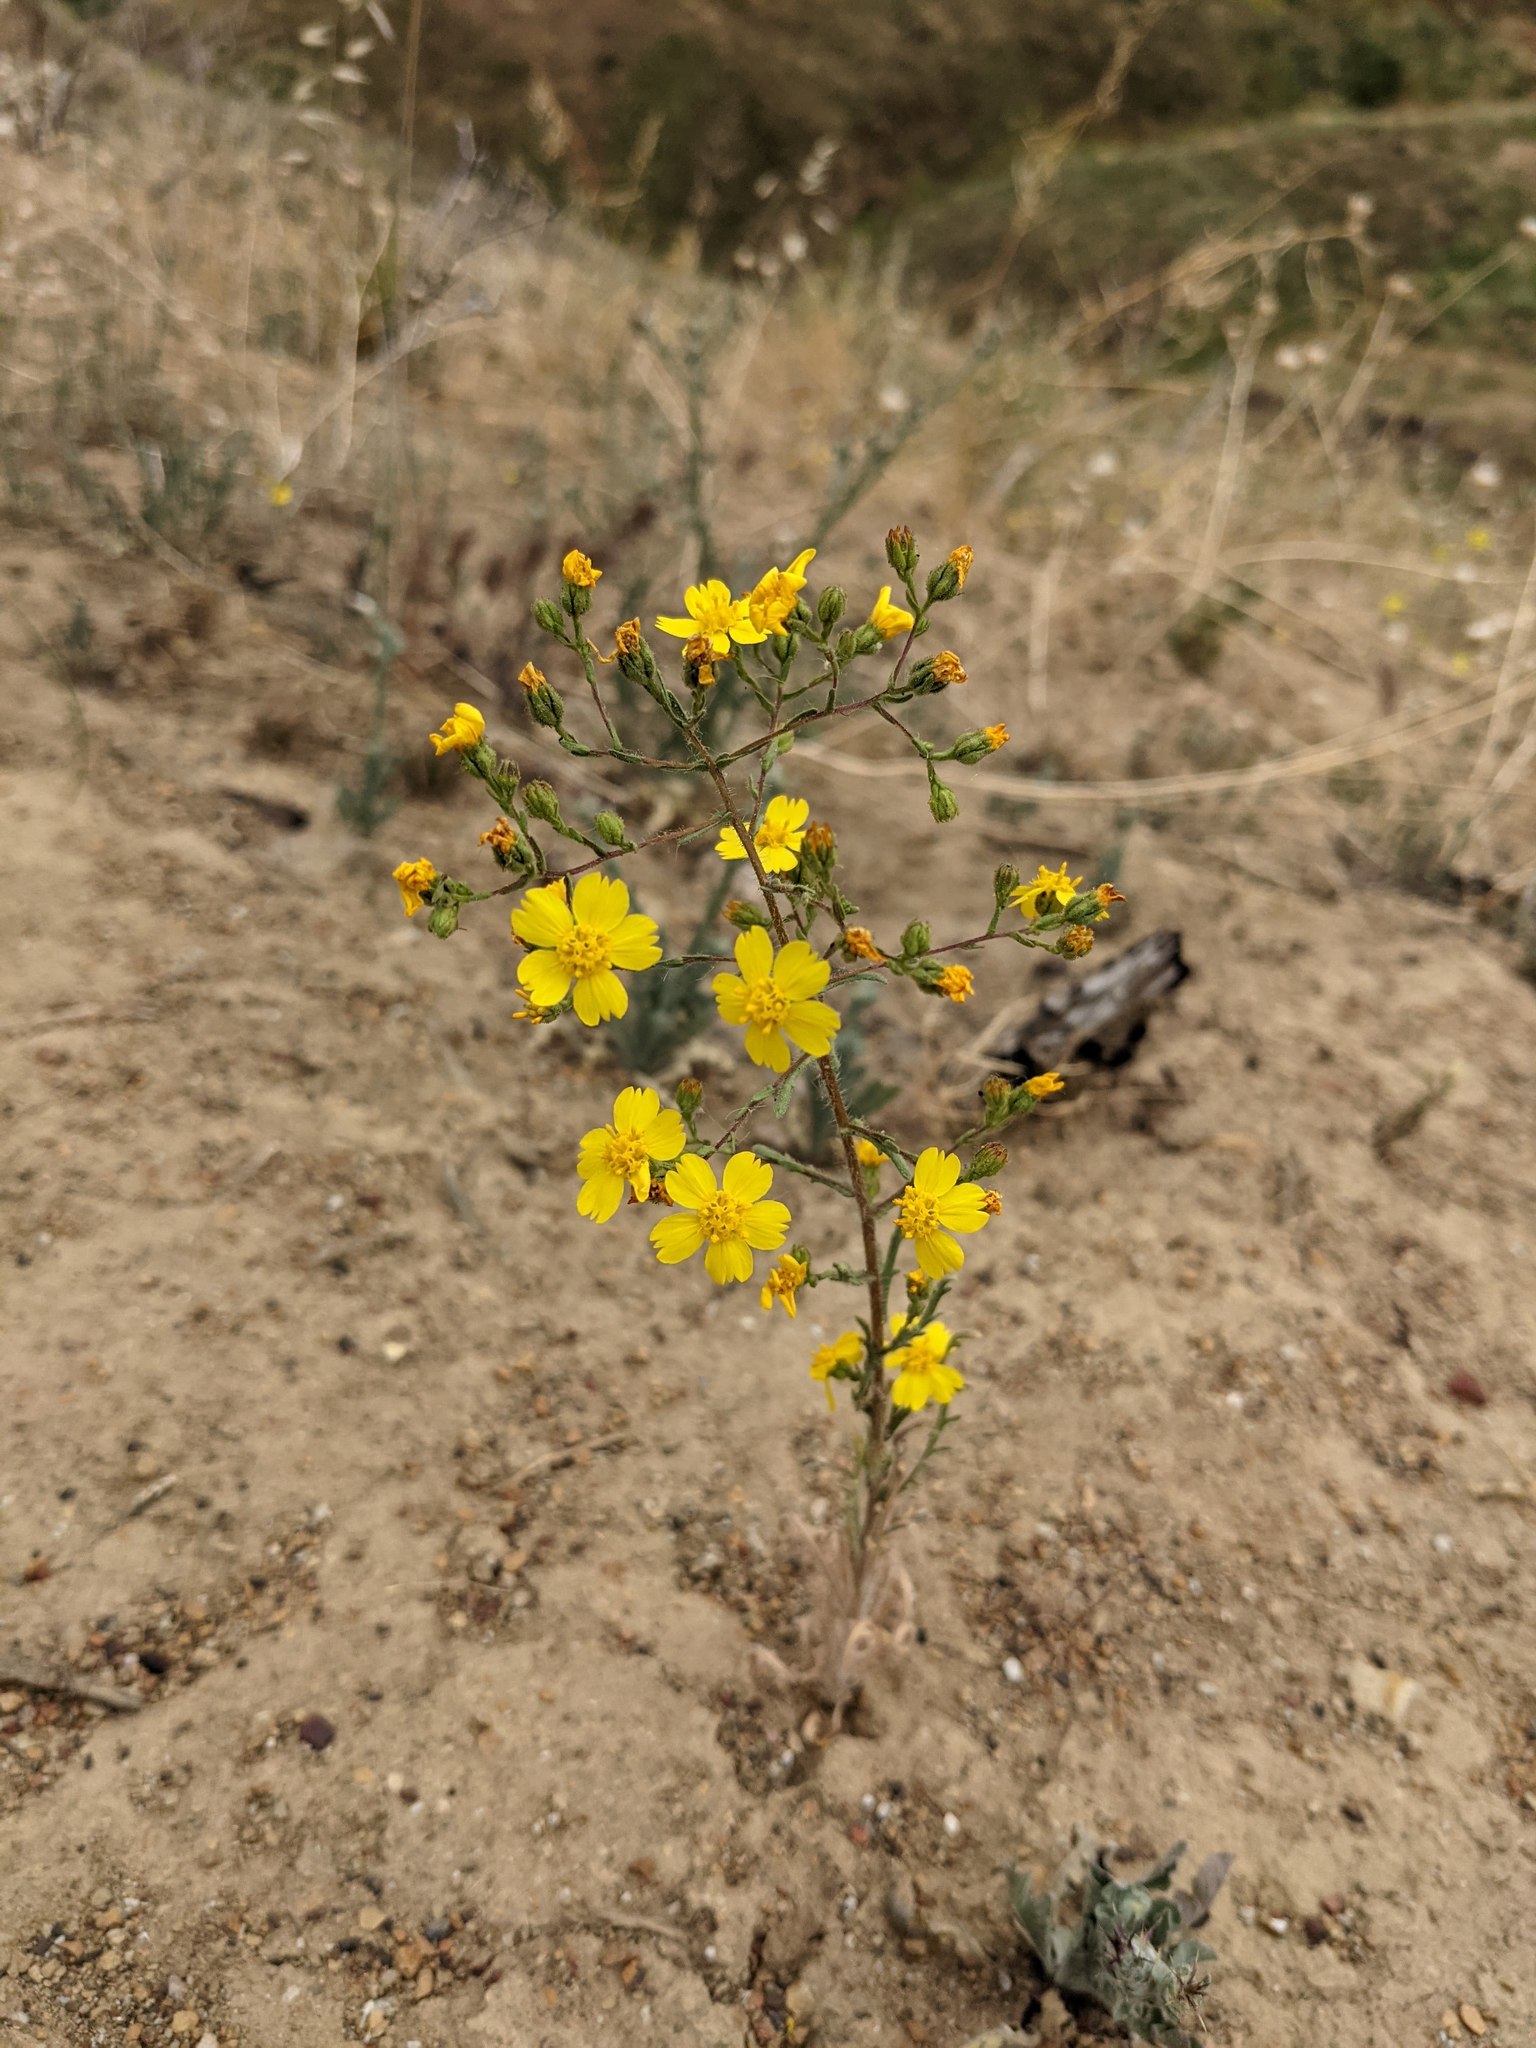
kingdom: Plantae
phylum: Tracheophyta
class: Magnoliopsida
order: Asterales
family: Asteraceae
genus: Deinandra
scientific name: Deinandra kelloggii
